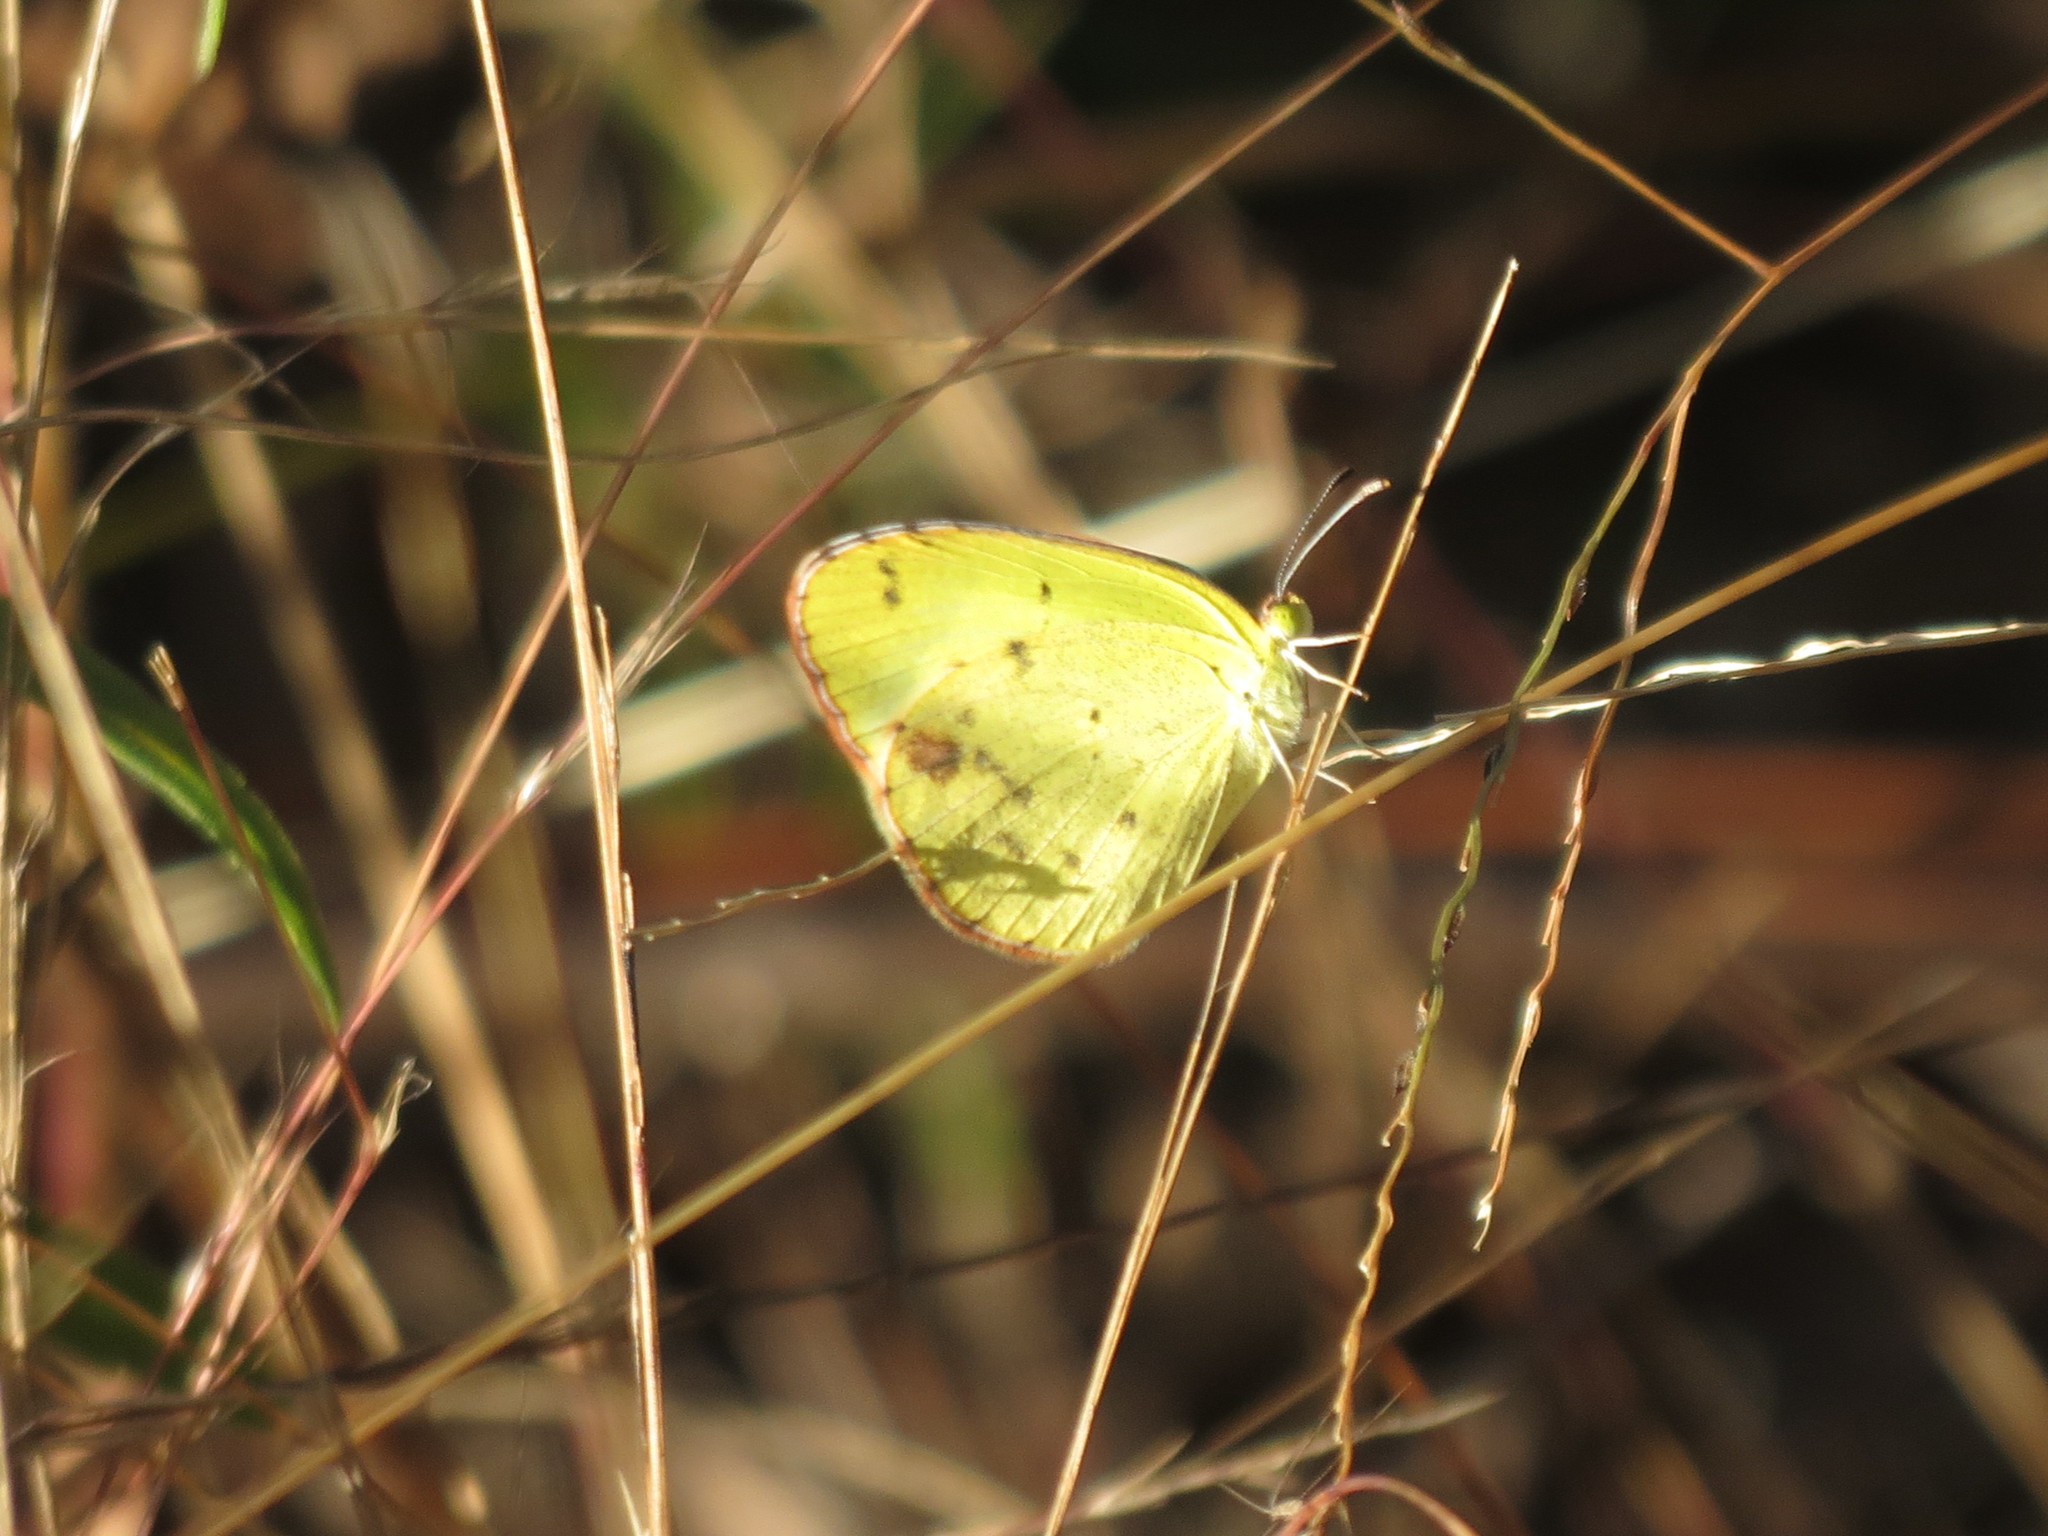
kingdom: Animalia
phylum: Arthropoda
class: Insecta
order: Lepidoptera
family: Pieridae
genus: Pyrisitia
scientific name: Pyrisitia lisa
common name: Little yellow
